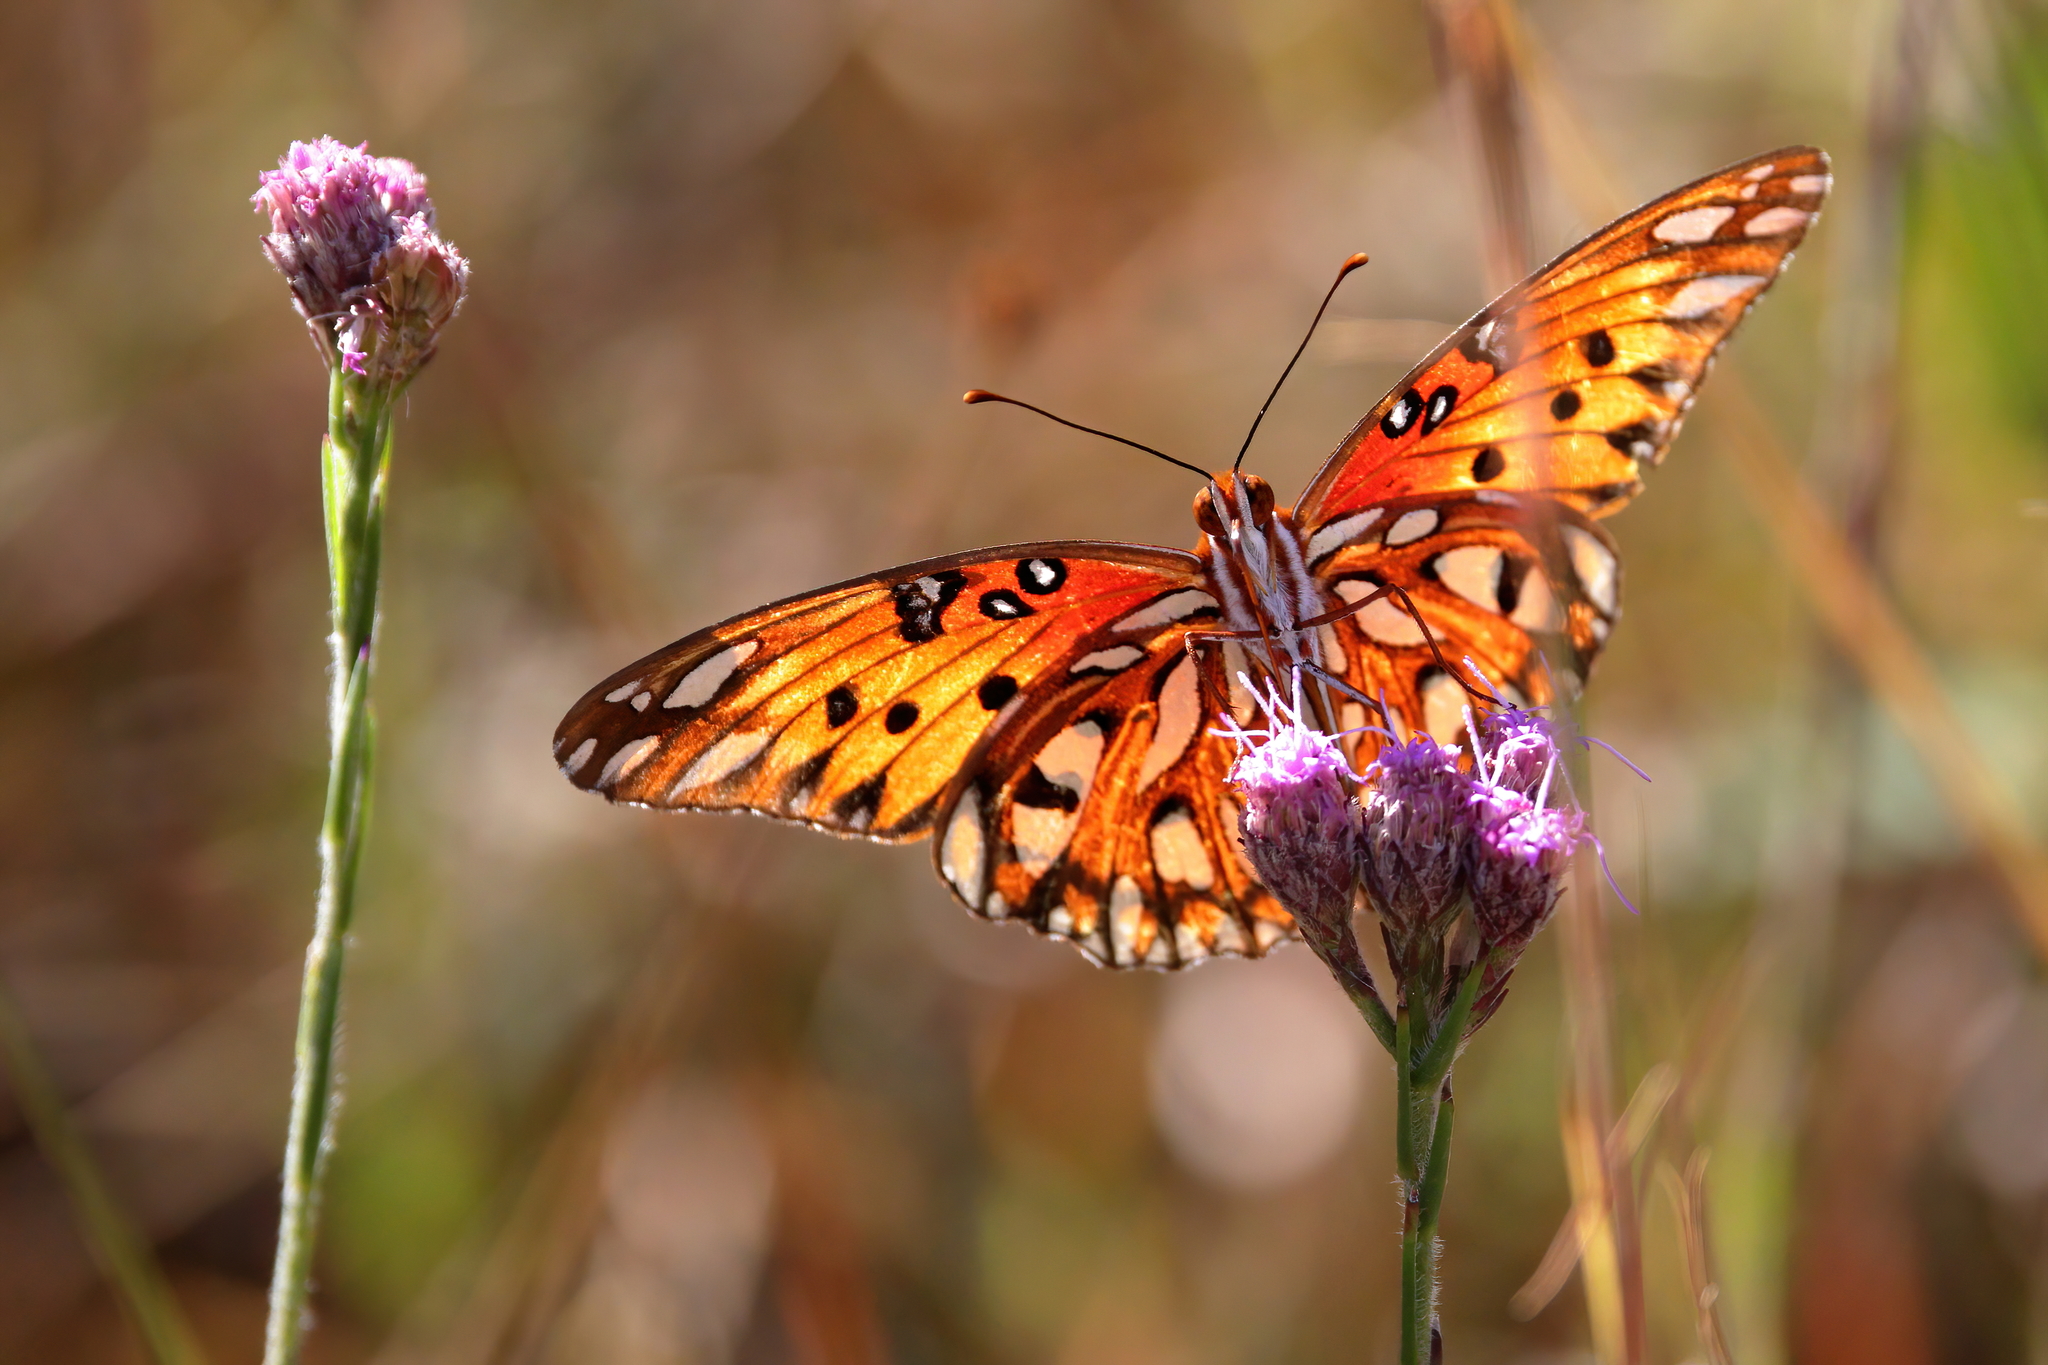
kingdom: Animalia
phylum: Arthropoda
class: Insecta
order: Lepidoptera
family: Nymphalidae
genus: Dione
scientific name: Dione vanillae
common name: Gulf fritillary
